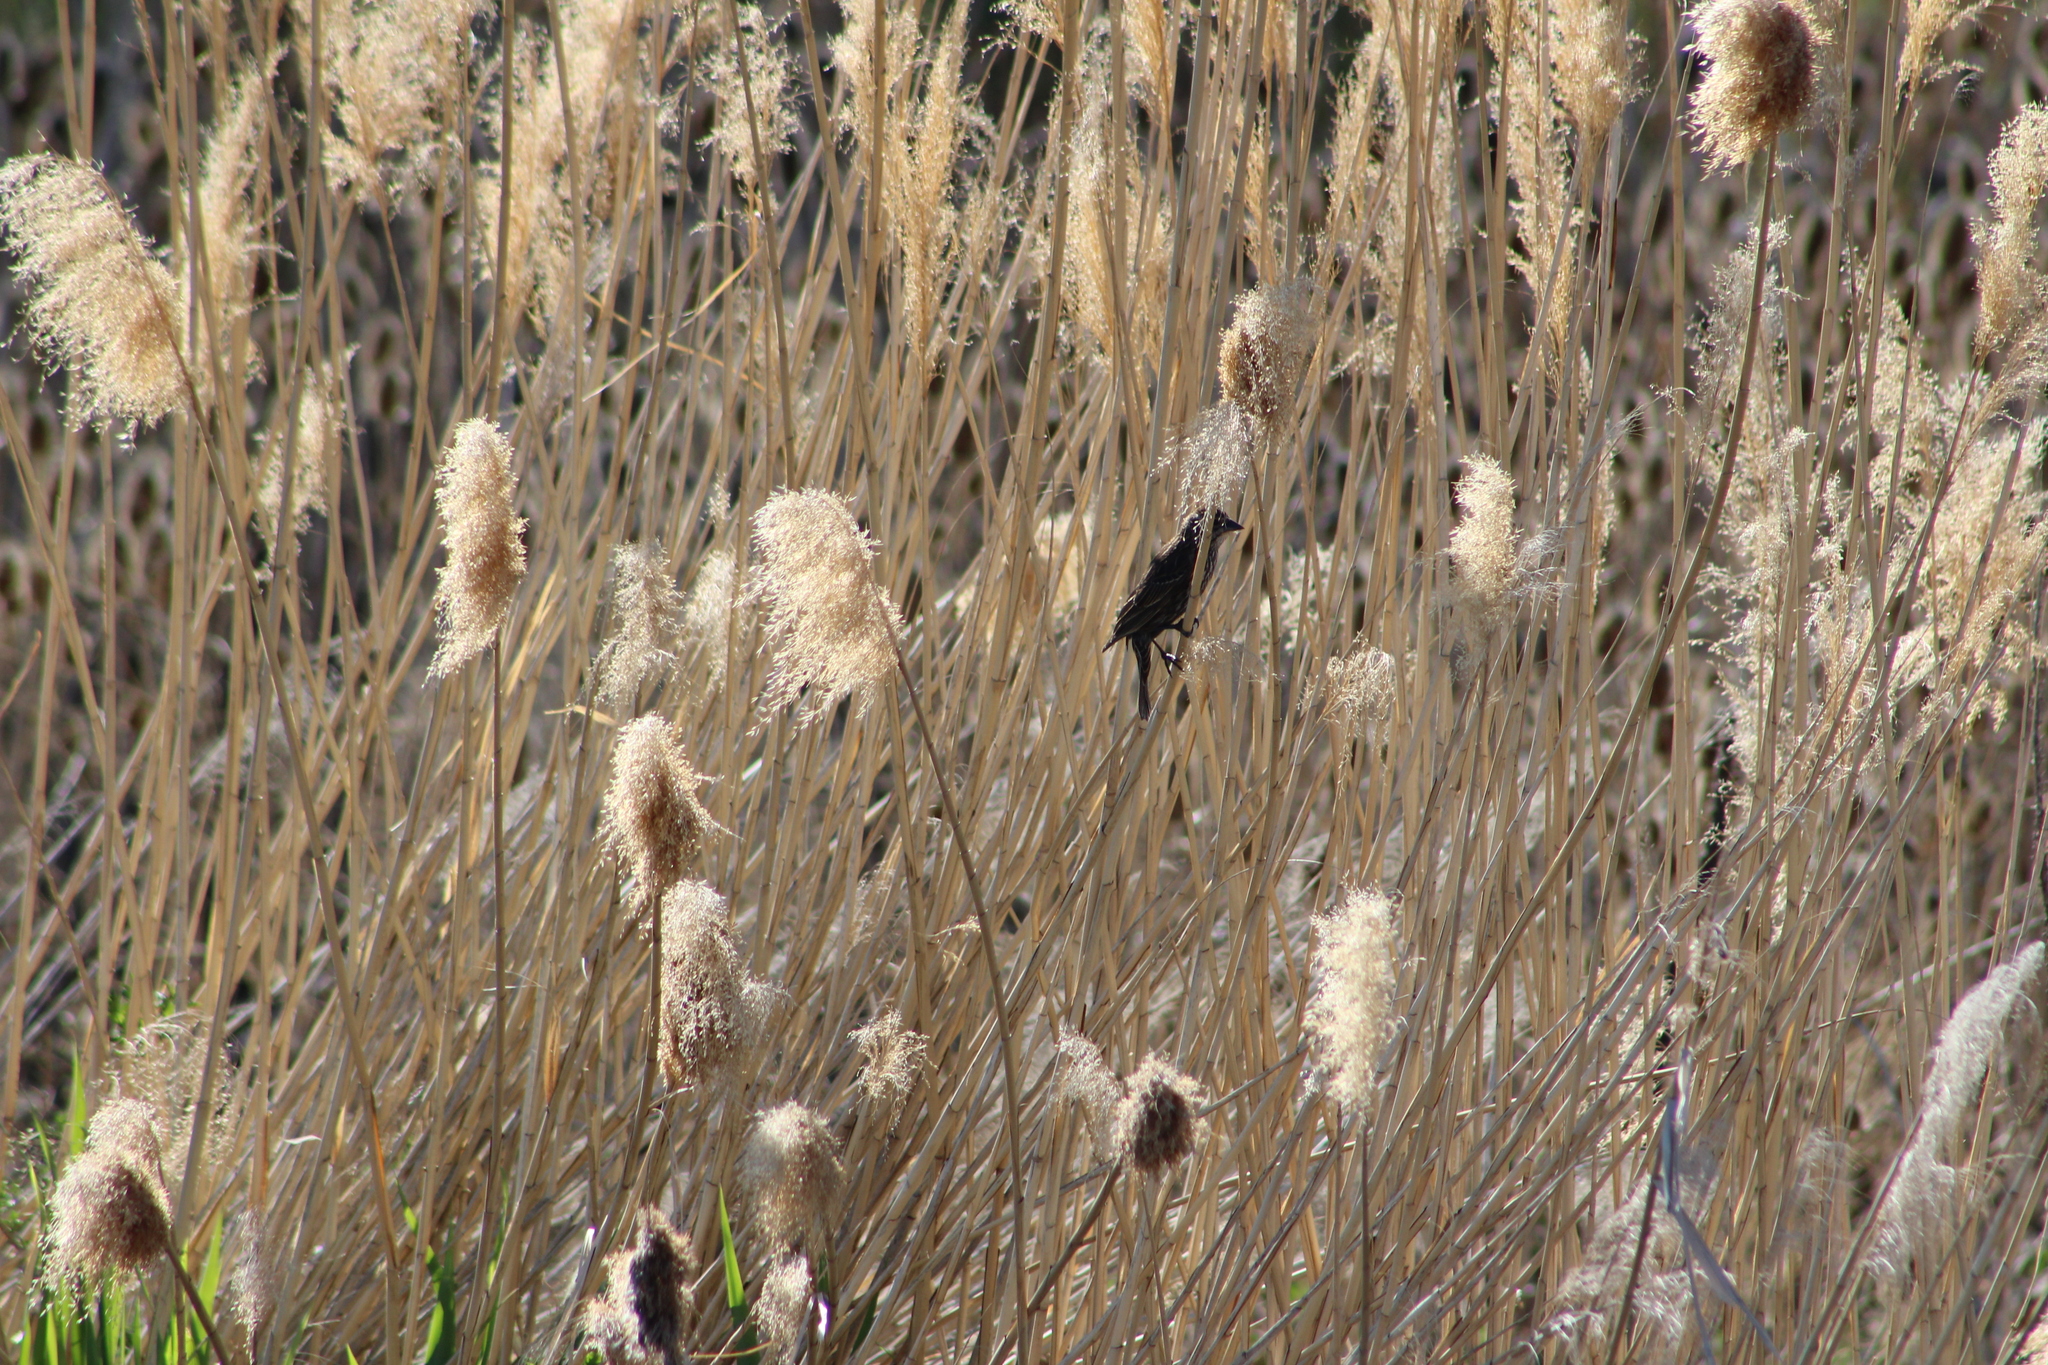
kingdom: Animalia
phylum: Chordata
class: Aves
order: Passeriformes
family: Icteridae
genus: Agelaius
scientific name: Agelaius phoeniceus
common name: Red-winged blackbird
